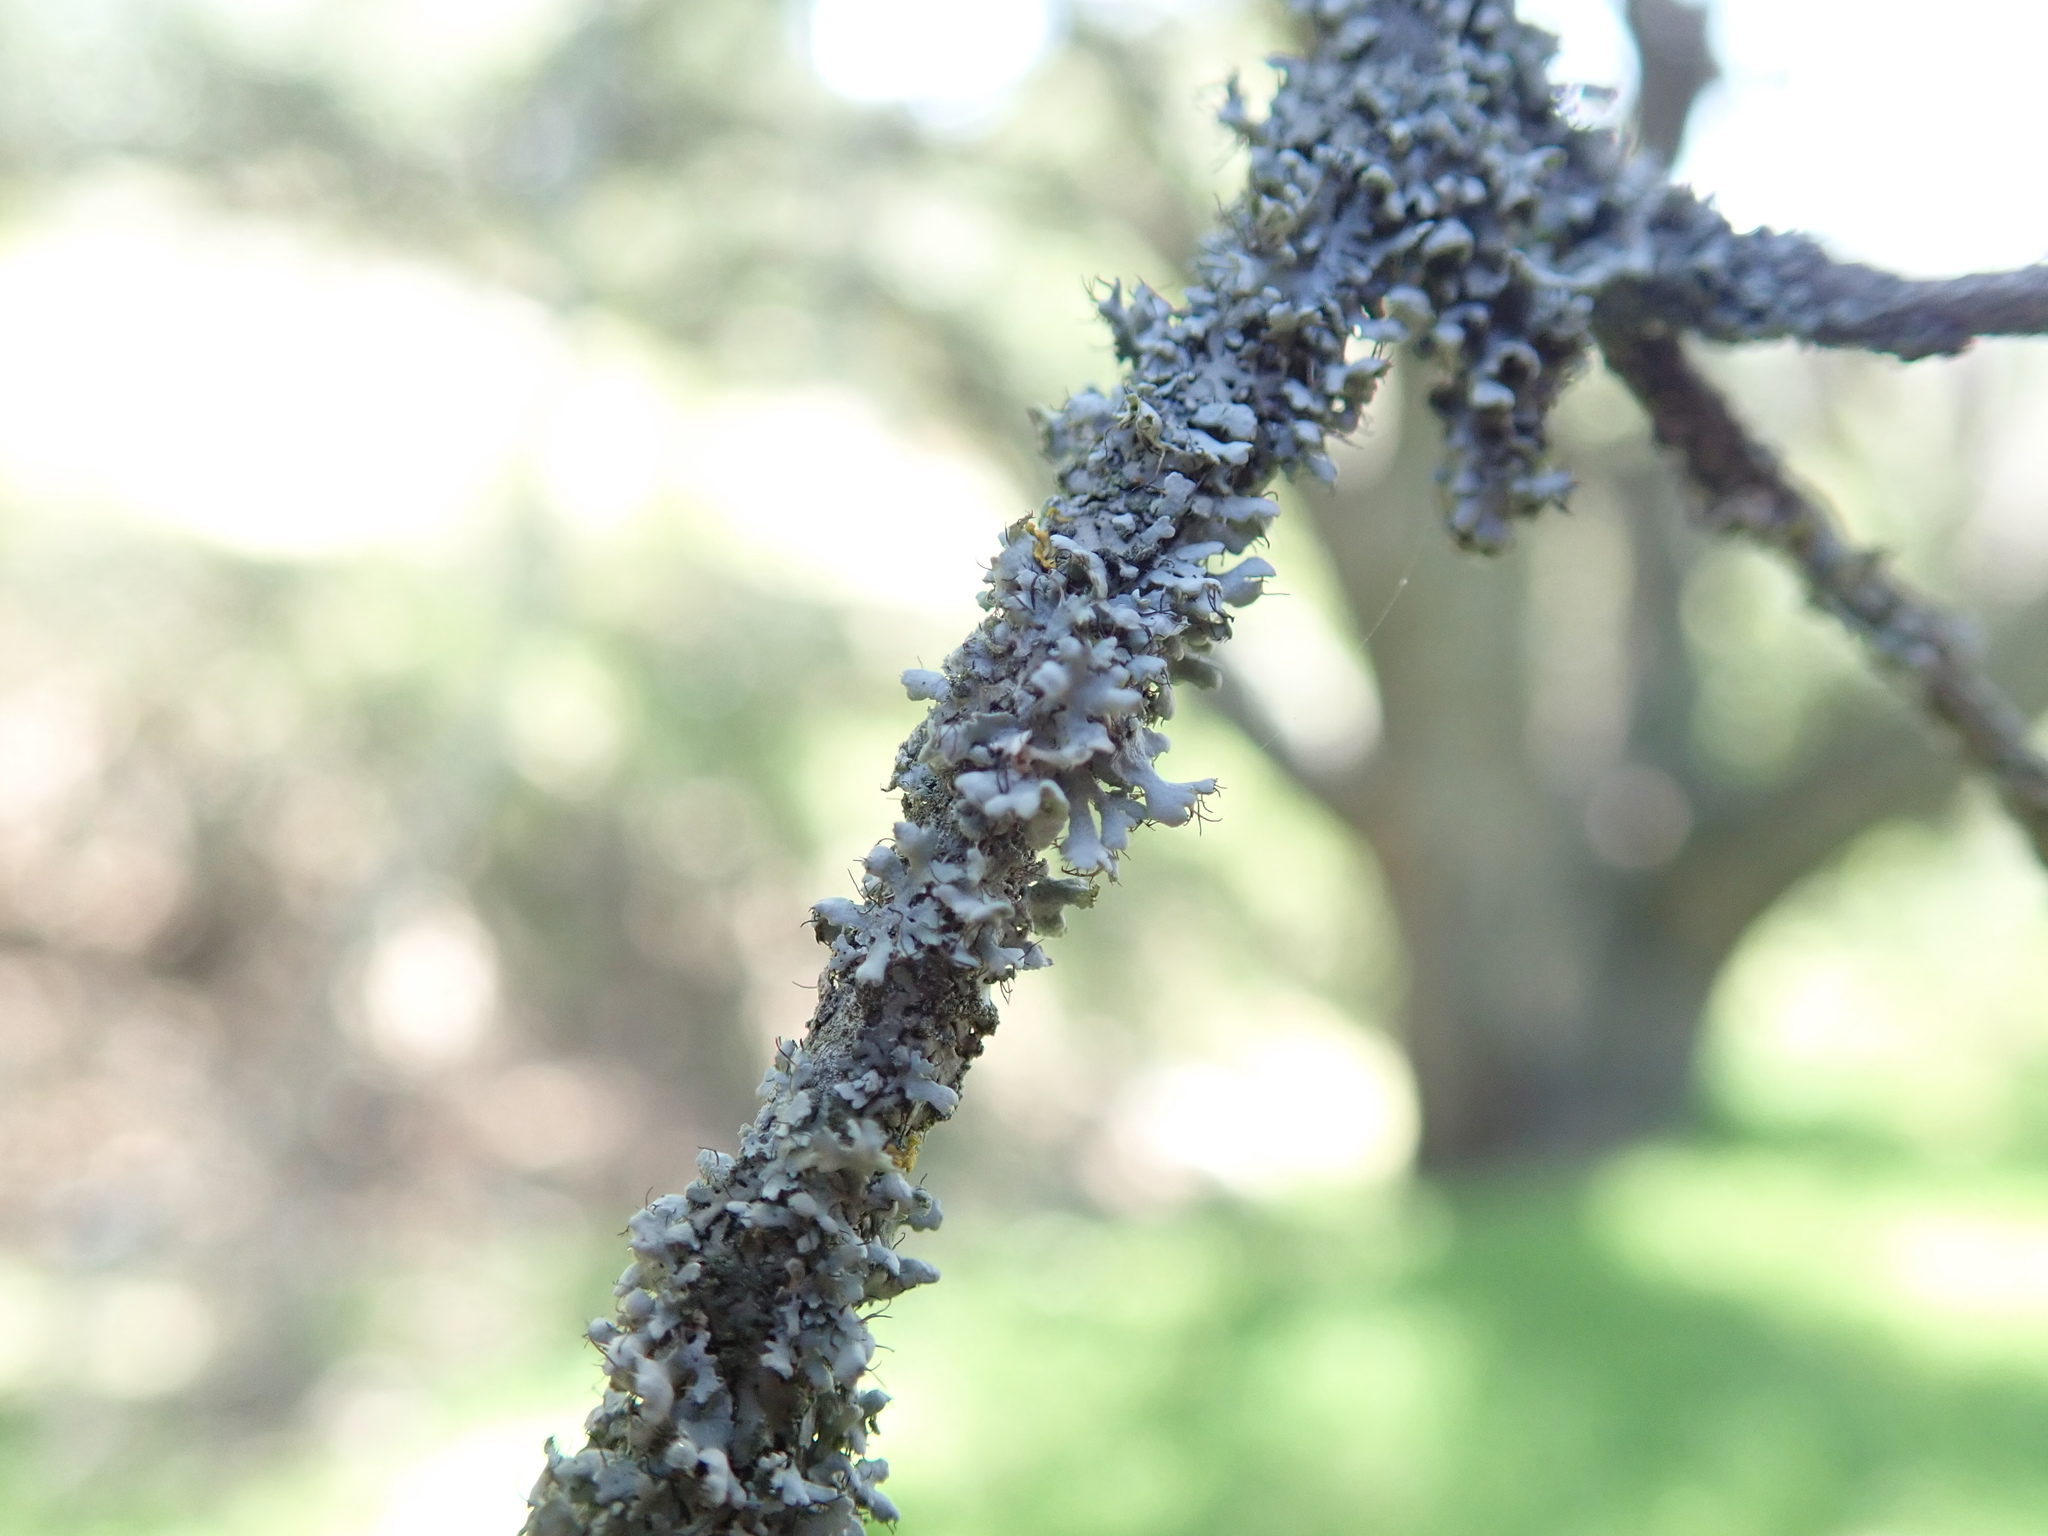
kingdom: Fungi
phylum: Ascomycota
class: Lecanoromycetes
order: Caliciales
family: Physciaceae
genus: Physcia
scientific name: Physcia adscendens
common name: Hooded rosette lichen
